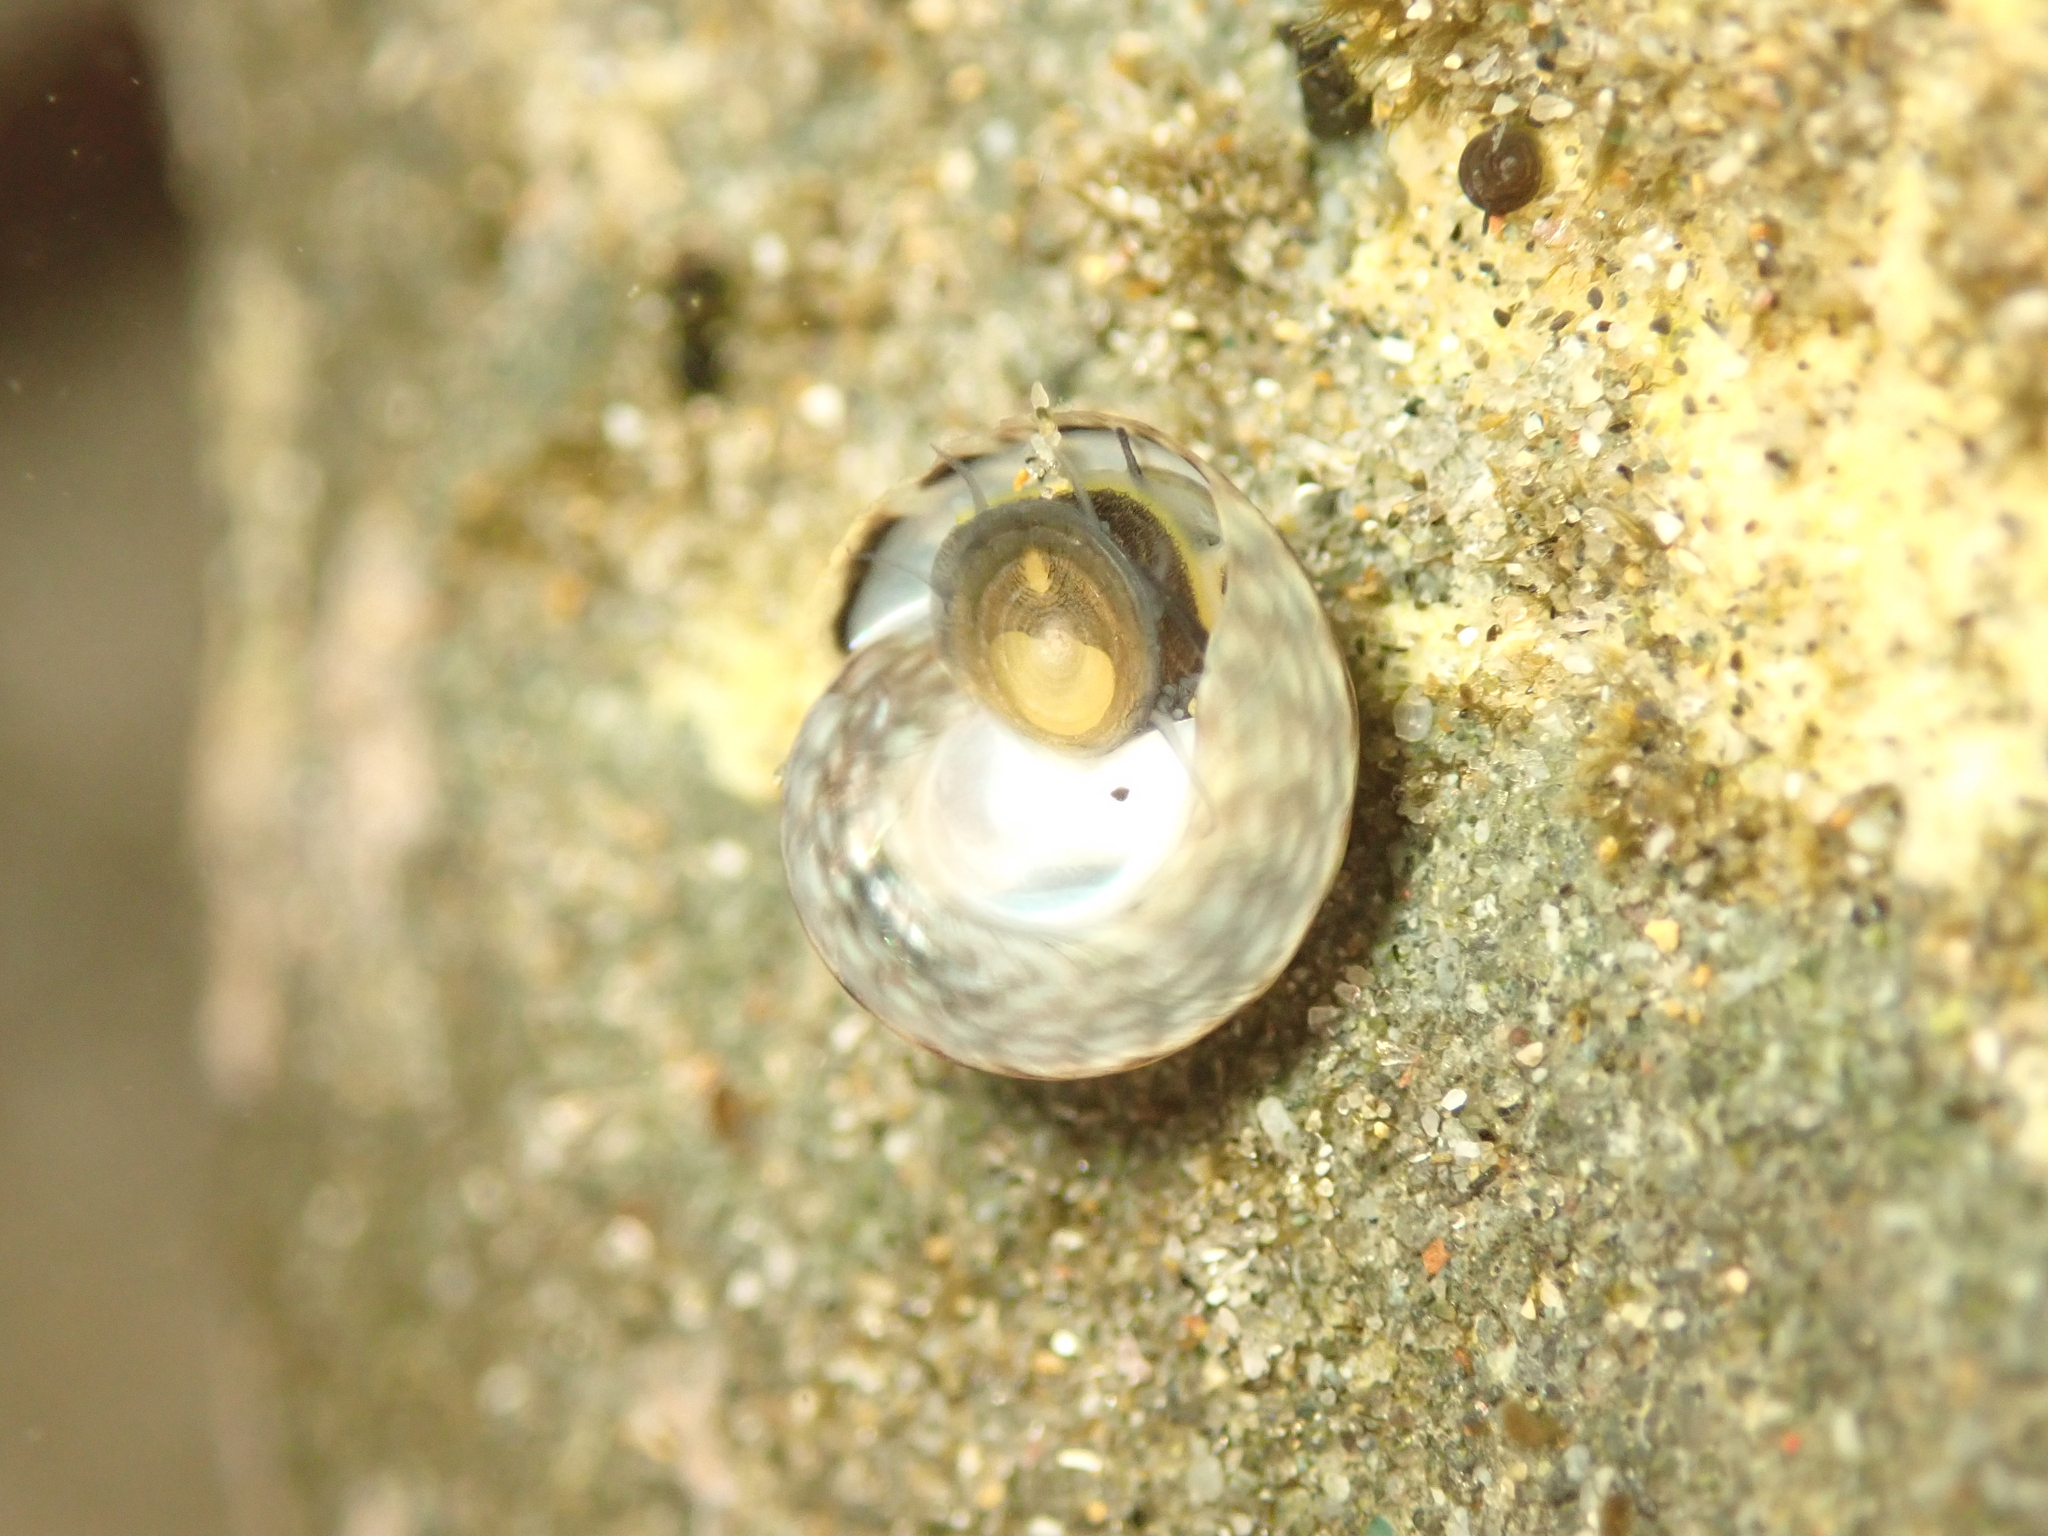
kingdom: Animalia
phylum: Mollusca
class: Gastropoda
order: Trochida
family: Trochidae
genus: Diloma
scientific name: Diloma coracinum
